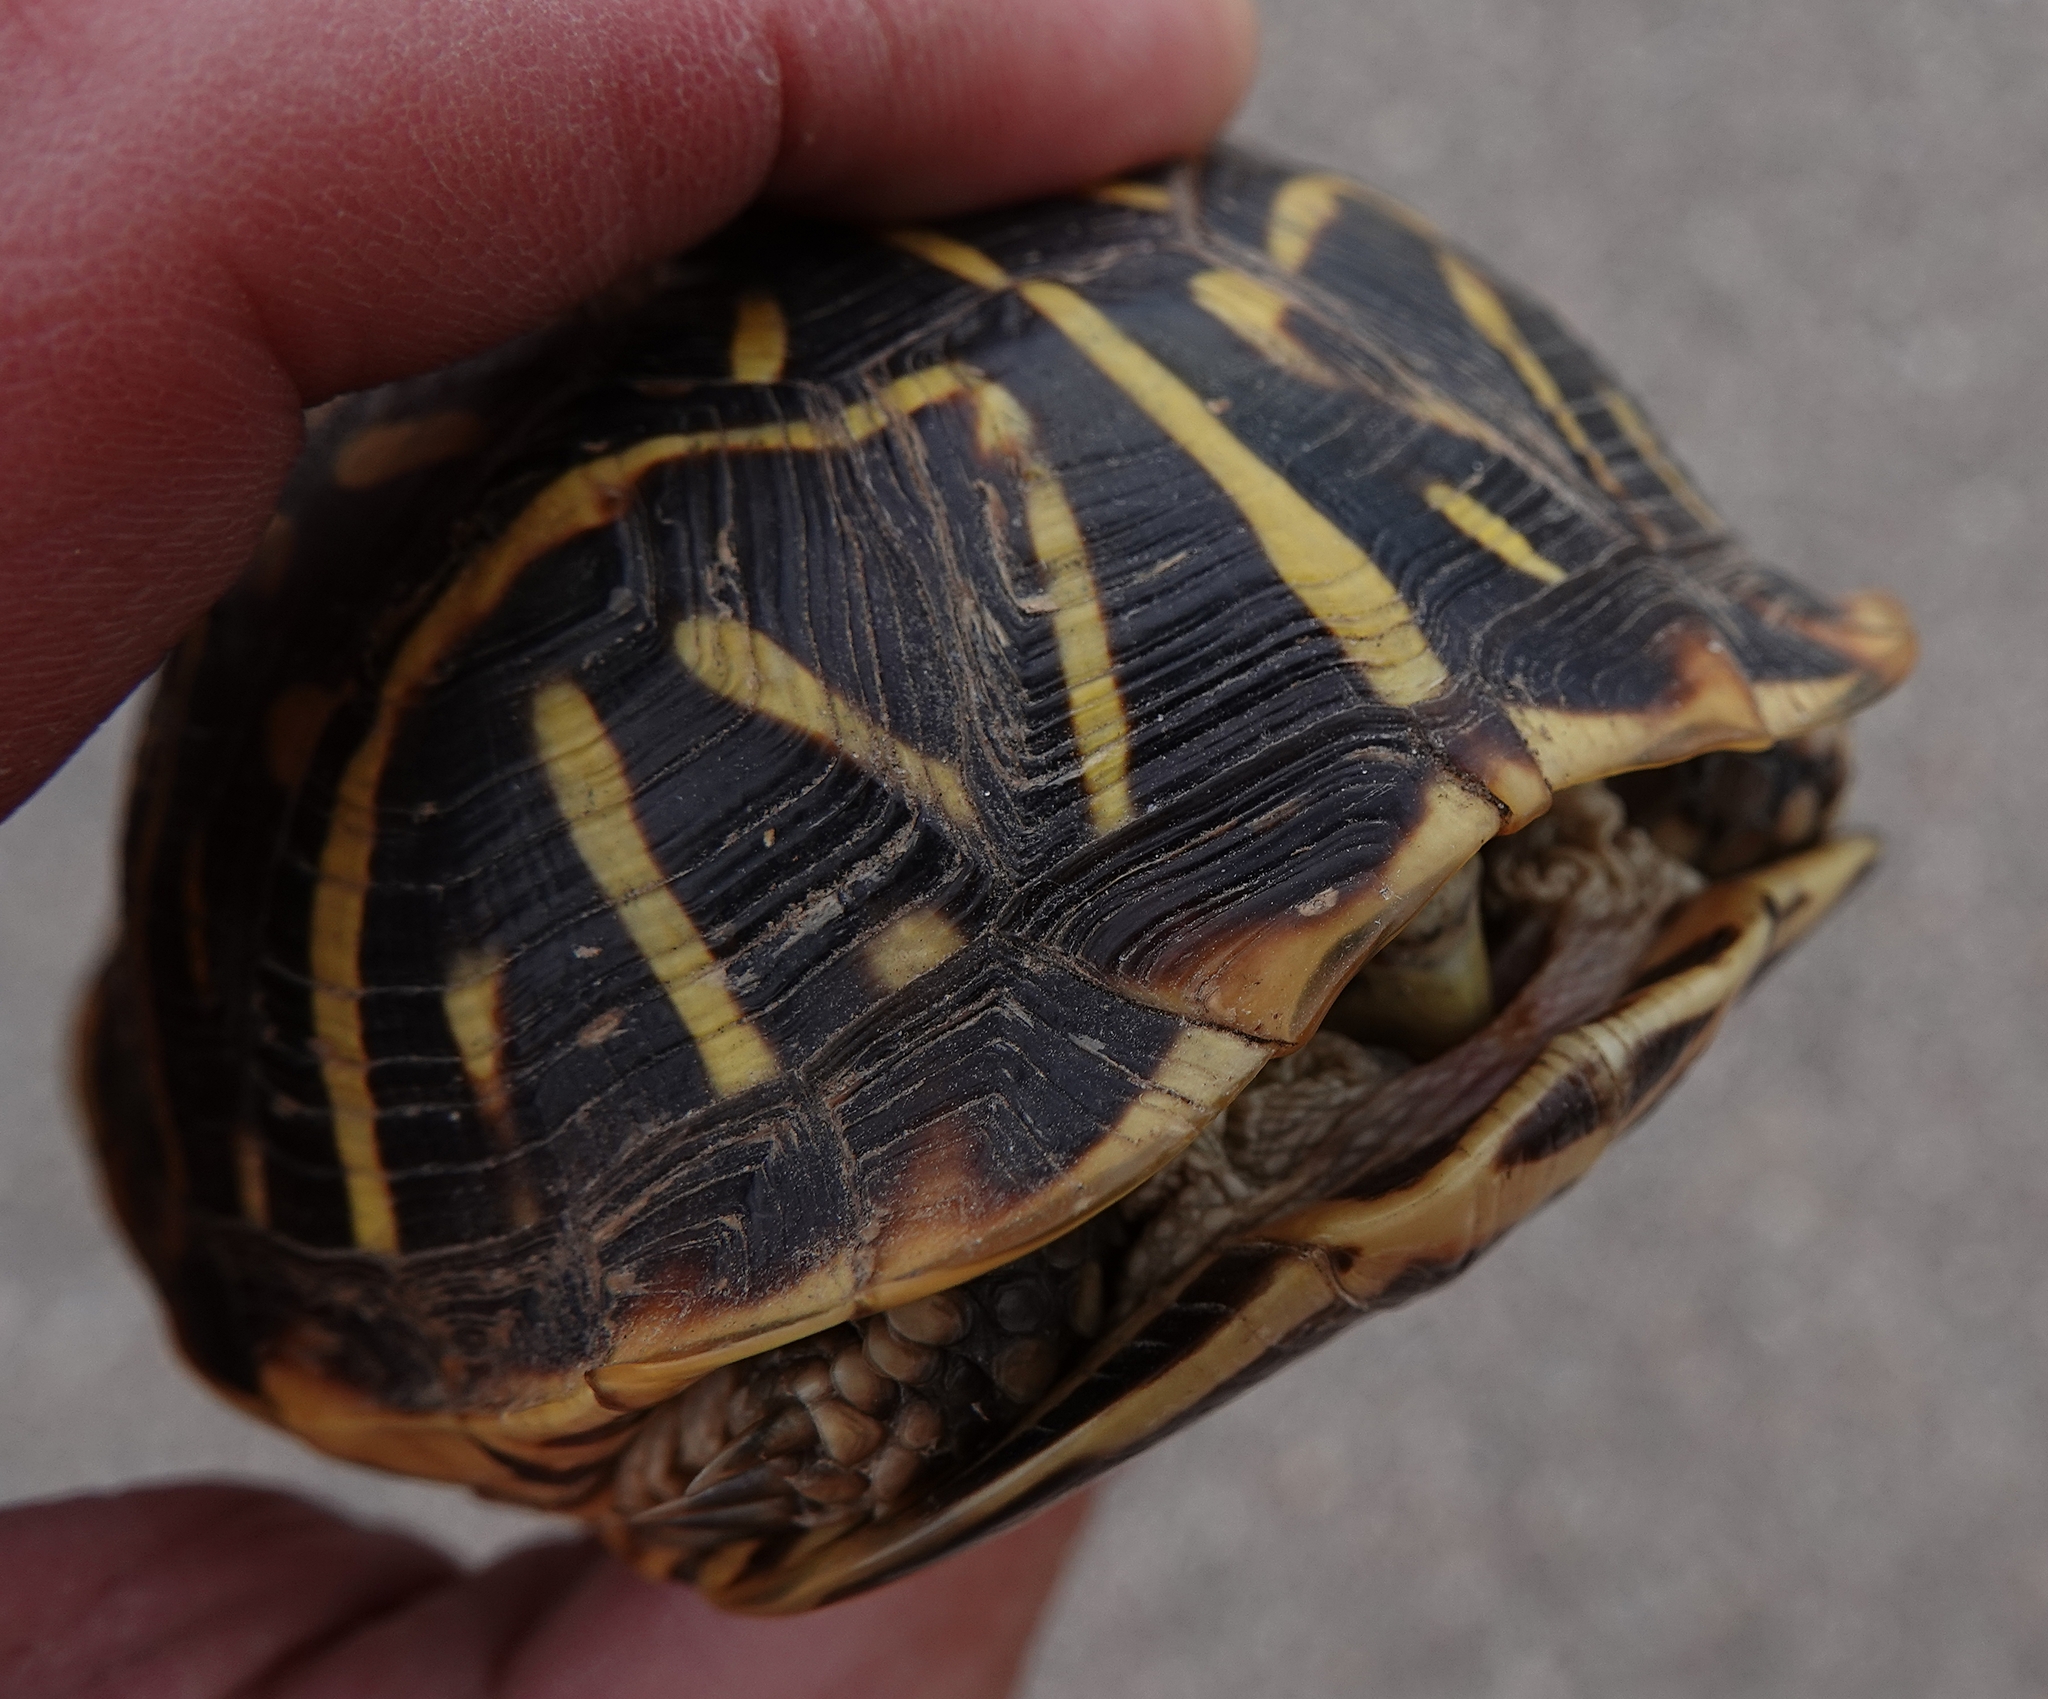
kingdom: Animalia
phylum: Chordata
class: Testudines
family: Emydidae
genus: Terrapene
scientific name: Terrapene ornata
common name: Western box turtle
